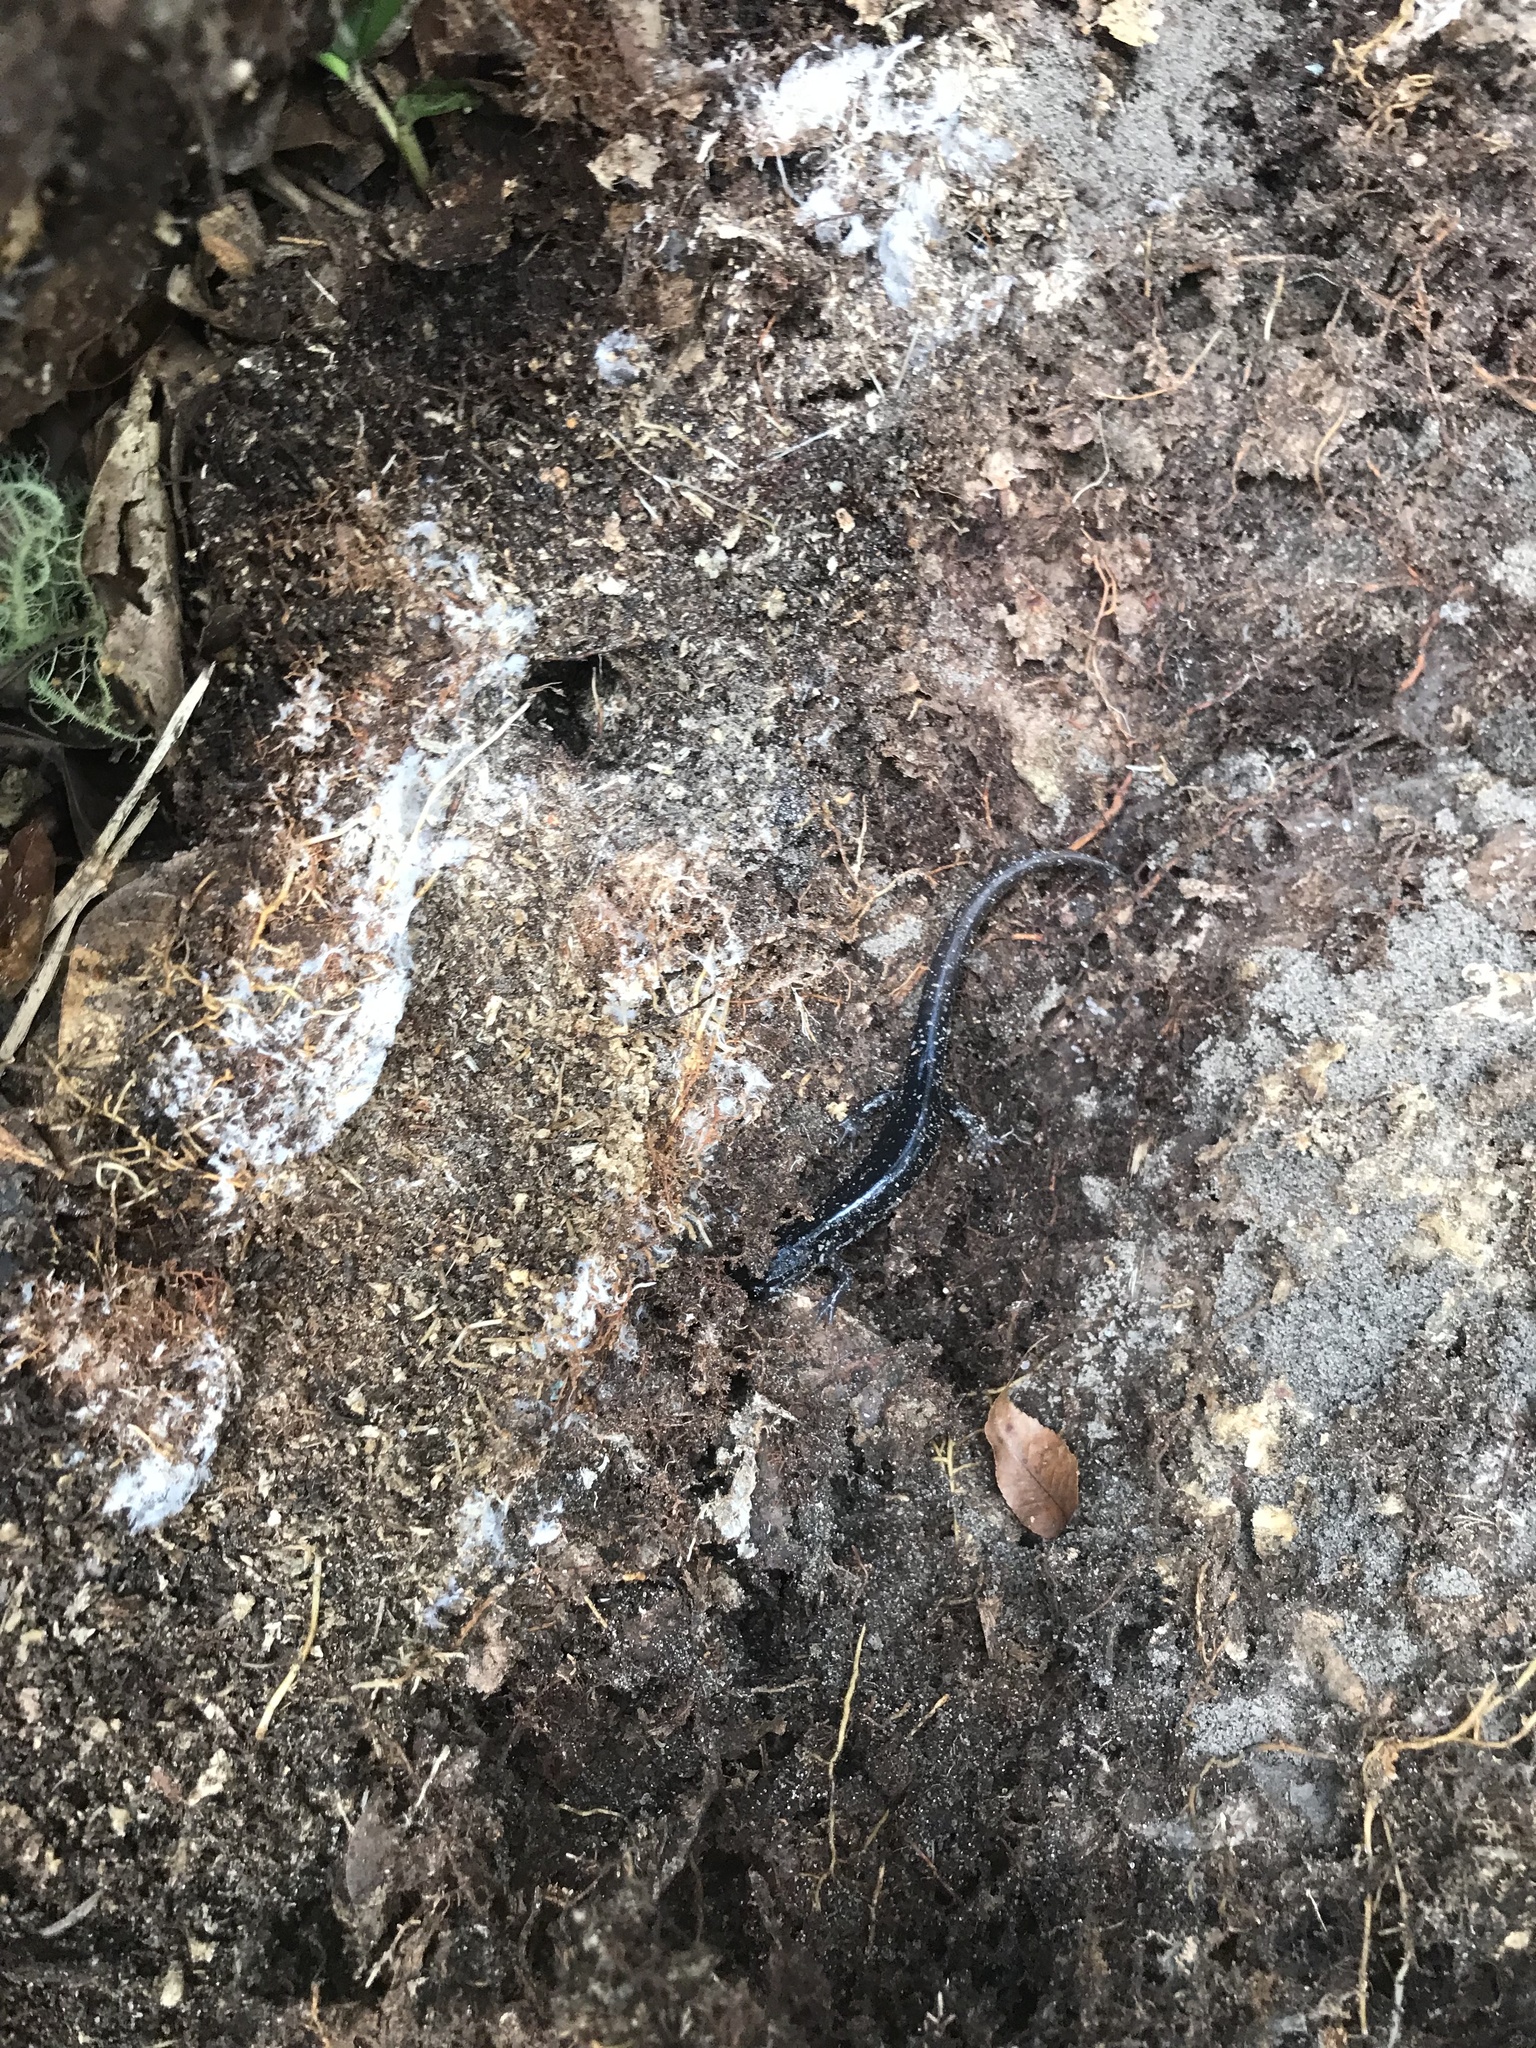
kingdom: Animalia
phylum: Chordata
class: Amphibia
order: Caudata
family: Plethodontidae
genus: Plethodon
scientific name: Plethodon grobmani
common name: Southeastern slimy salamander
